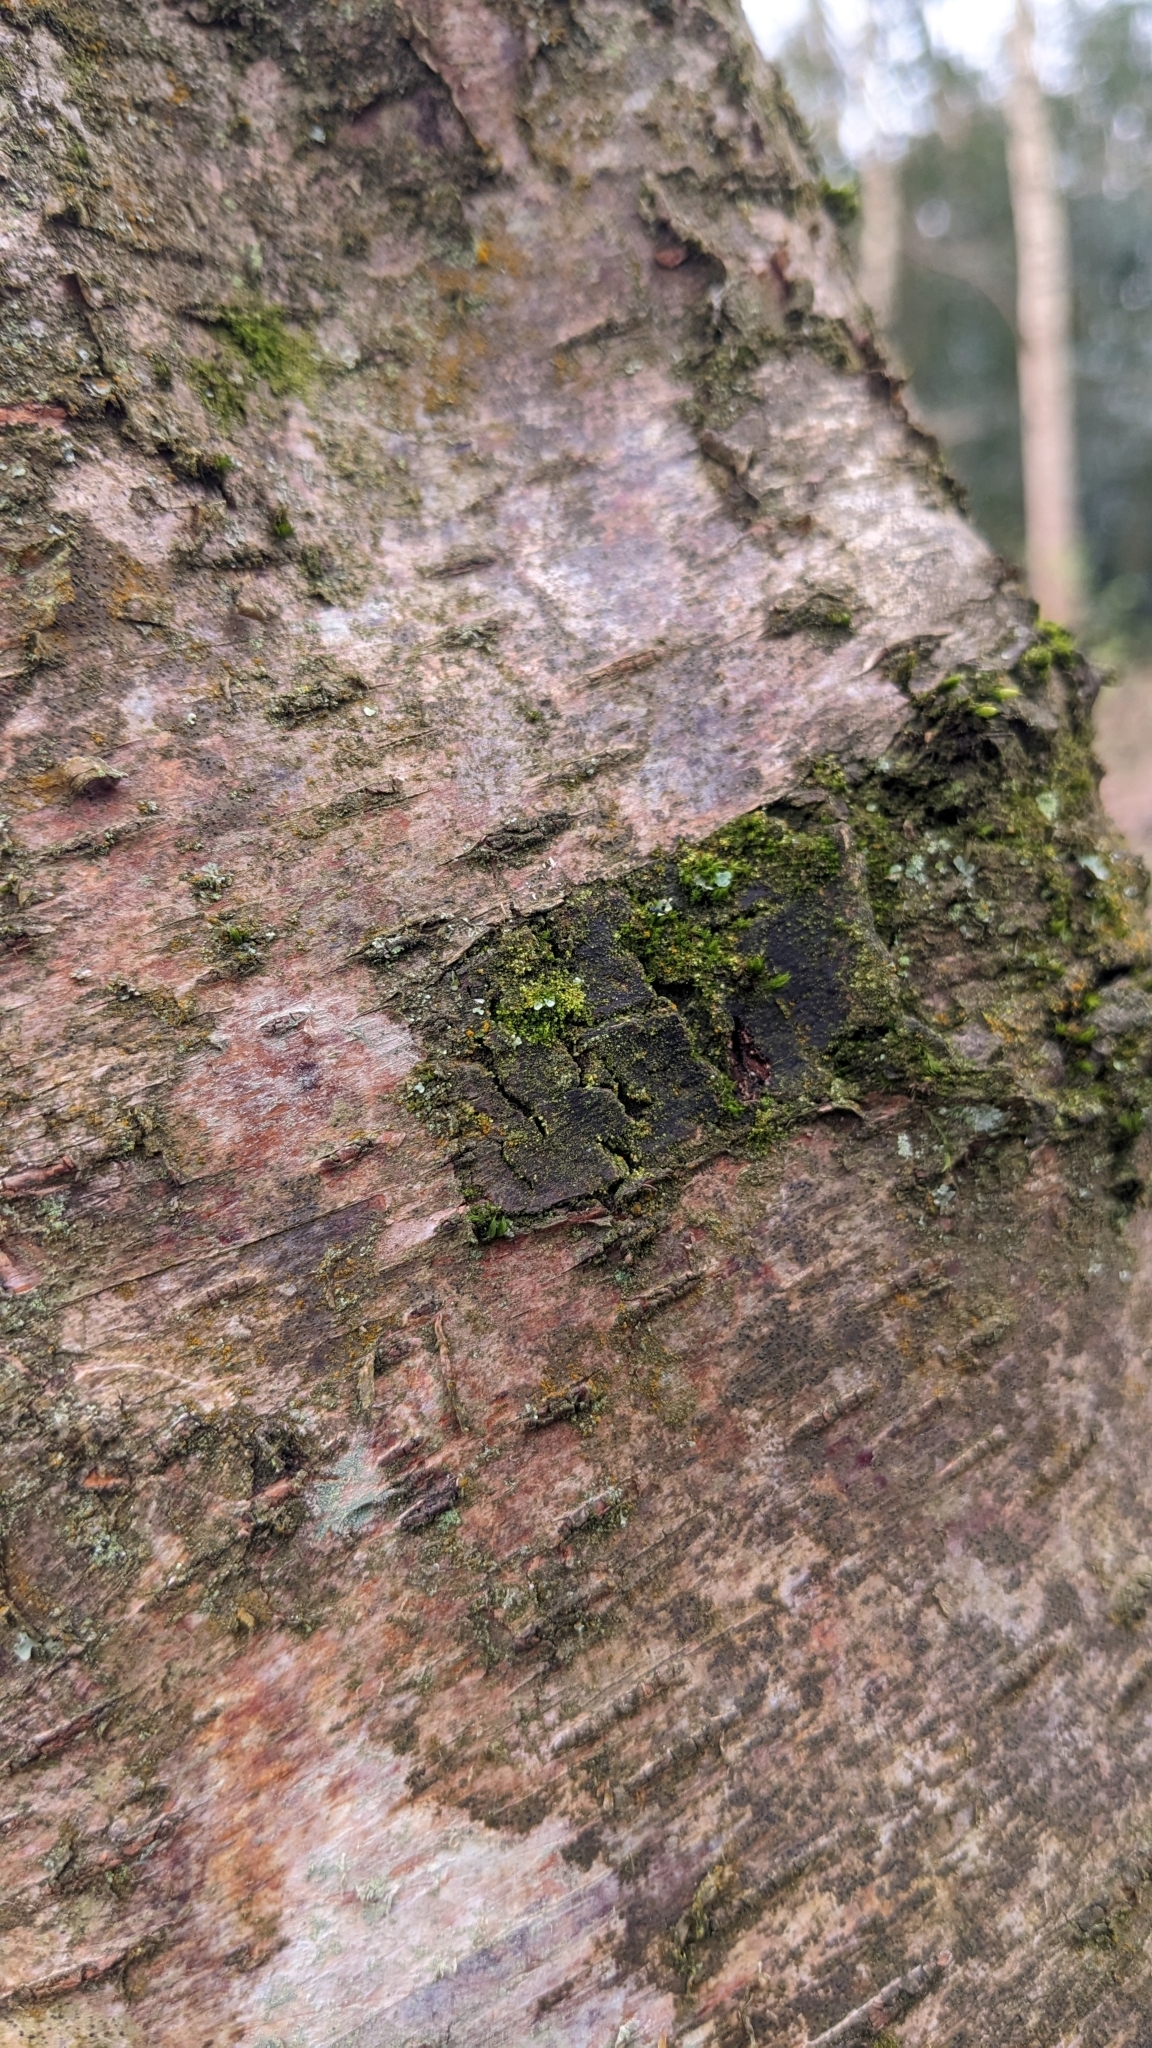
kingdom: Plantae
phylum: Marchantiophyta
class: Jungermanniopsida
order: Porellales
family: Lejeuneaceae
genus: Myriocoleopsis
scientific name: Myriocoleopsis minutissima
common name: Minute pouncewort
